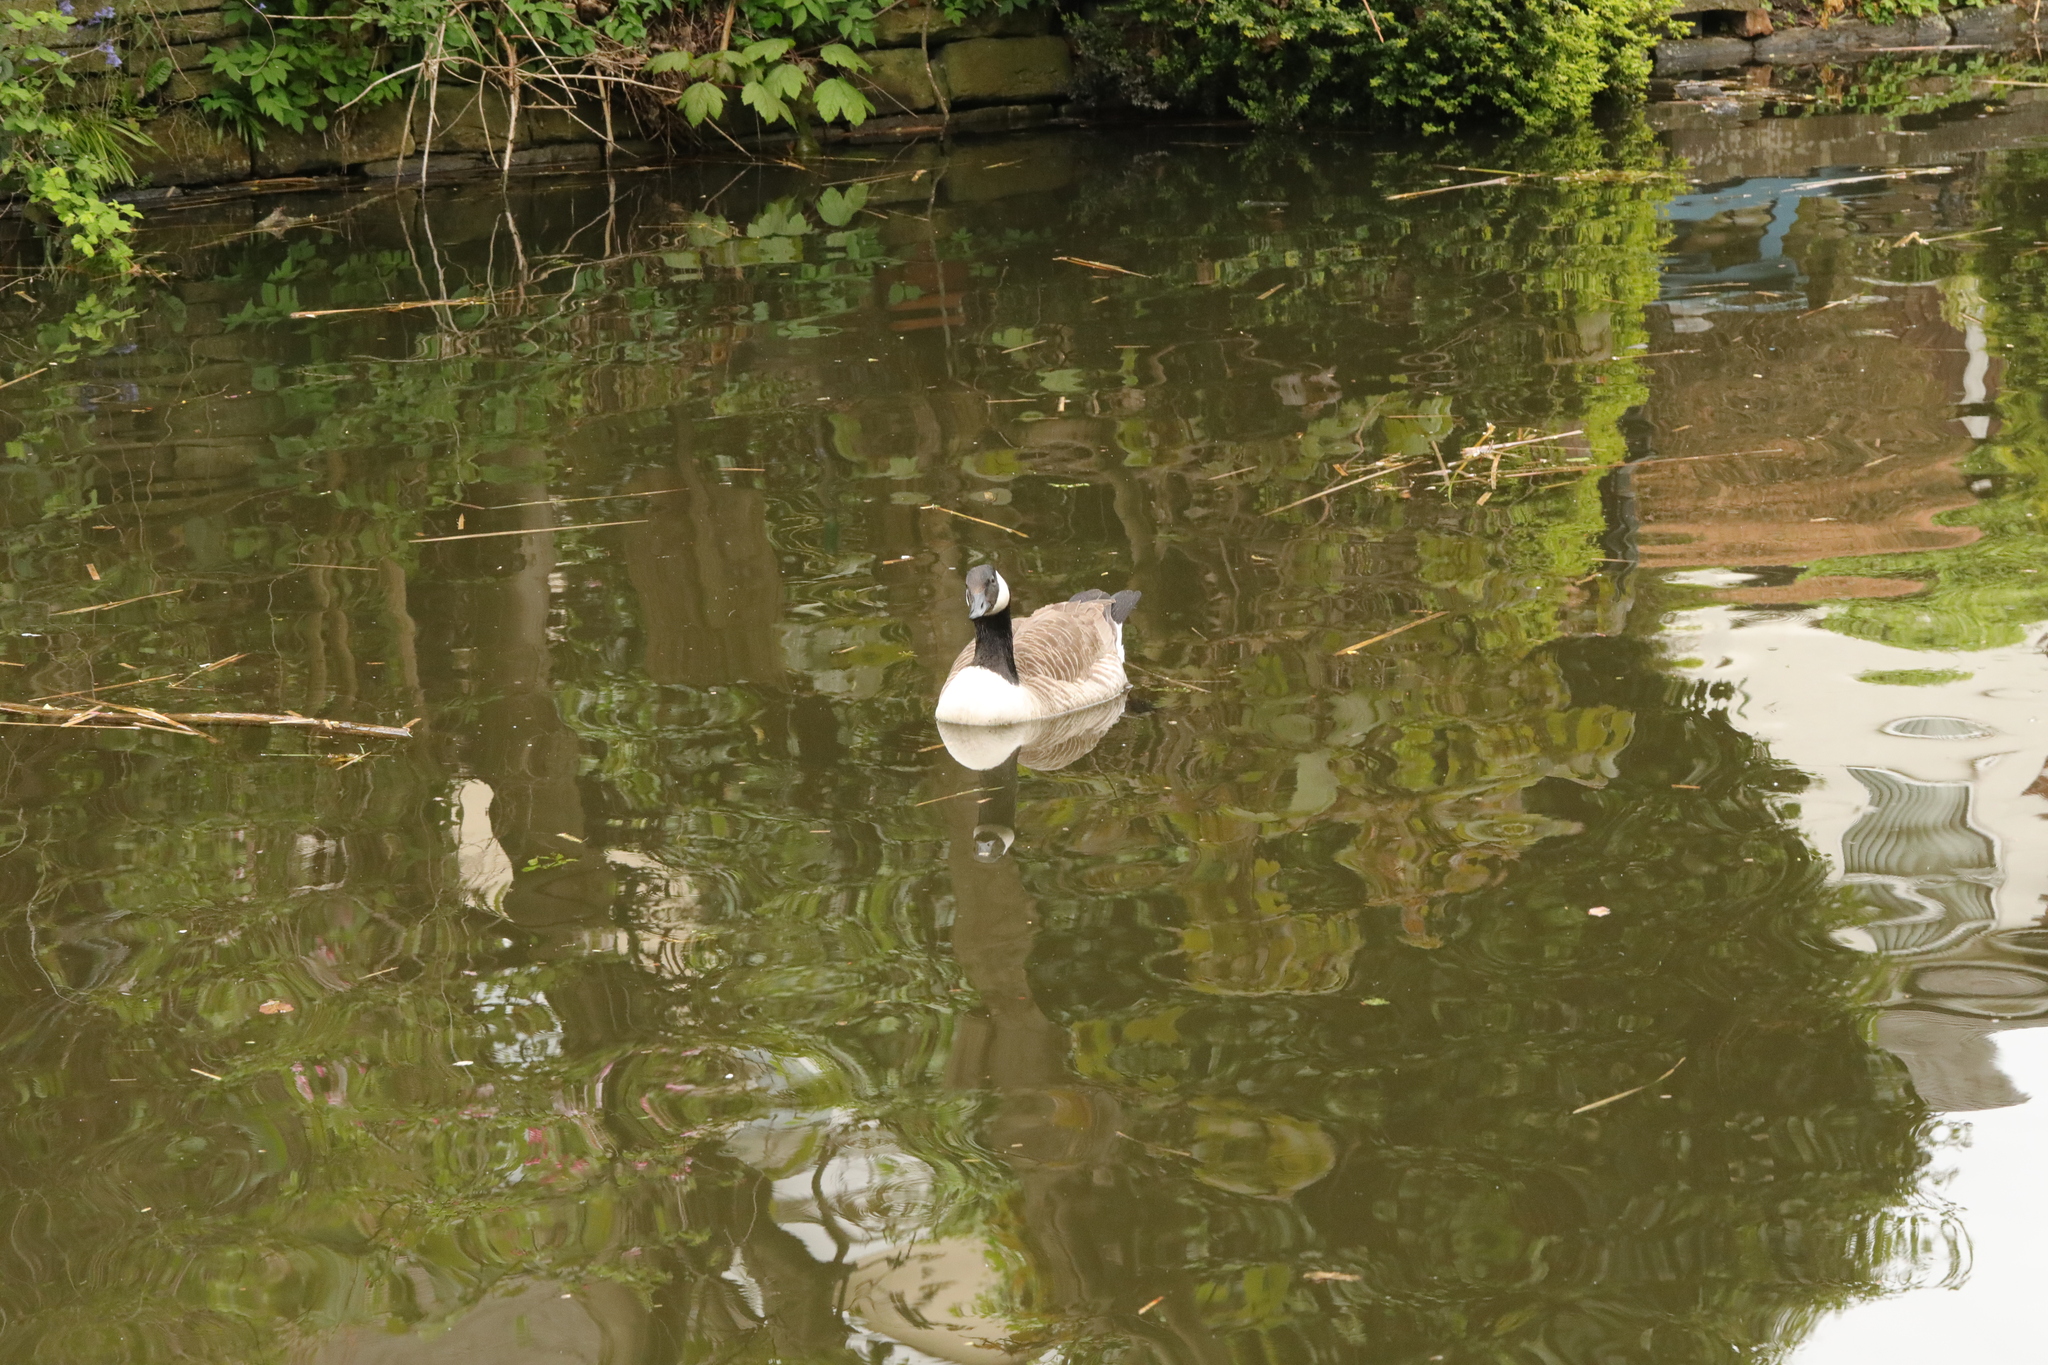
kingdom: Animalia
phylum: Chordata
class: Aves
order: Anseriformes
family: Anatidae
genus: Branta
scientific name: Branta canadensis
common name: Canada goose
